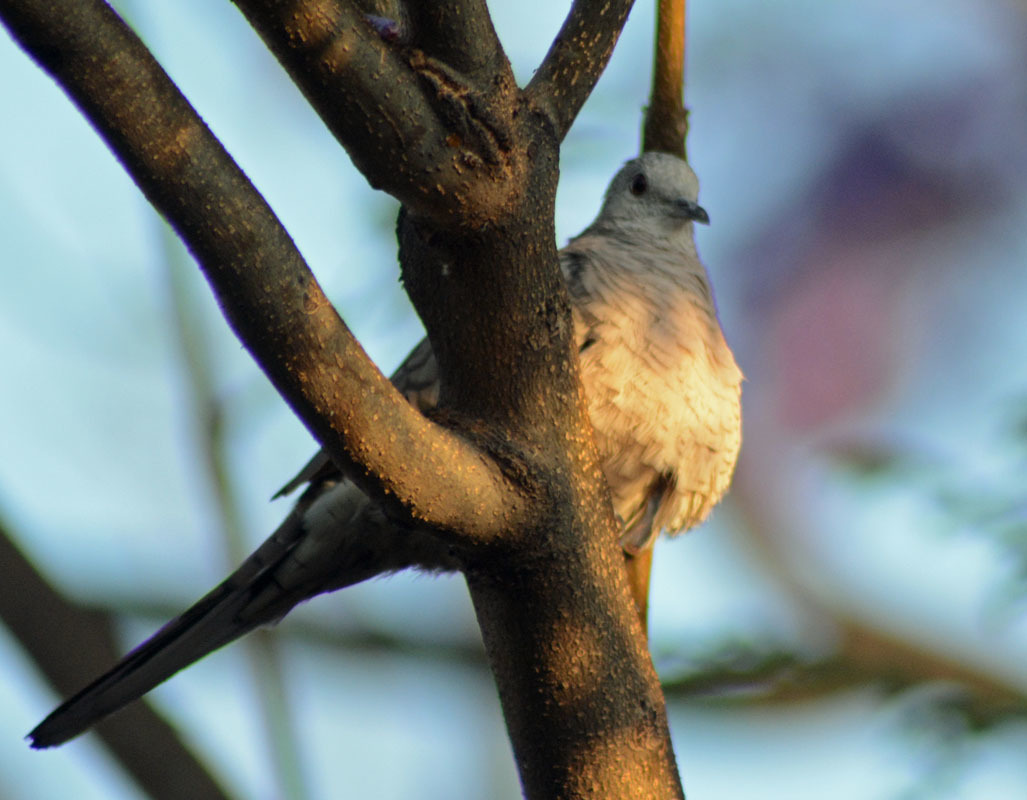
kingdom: Animalia
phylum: Chordata
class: Aves
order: Columbiformes
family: Columbidae
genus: Columbina
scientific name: Columbina inca
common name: Inca dove
